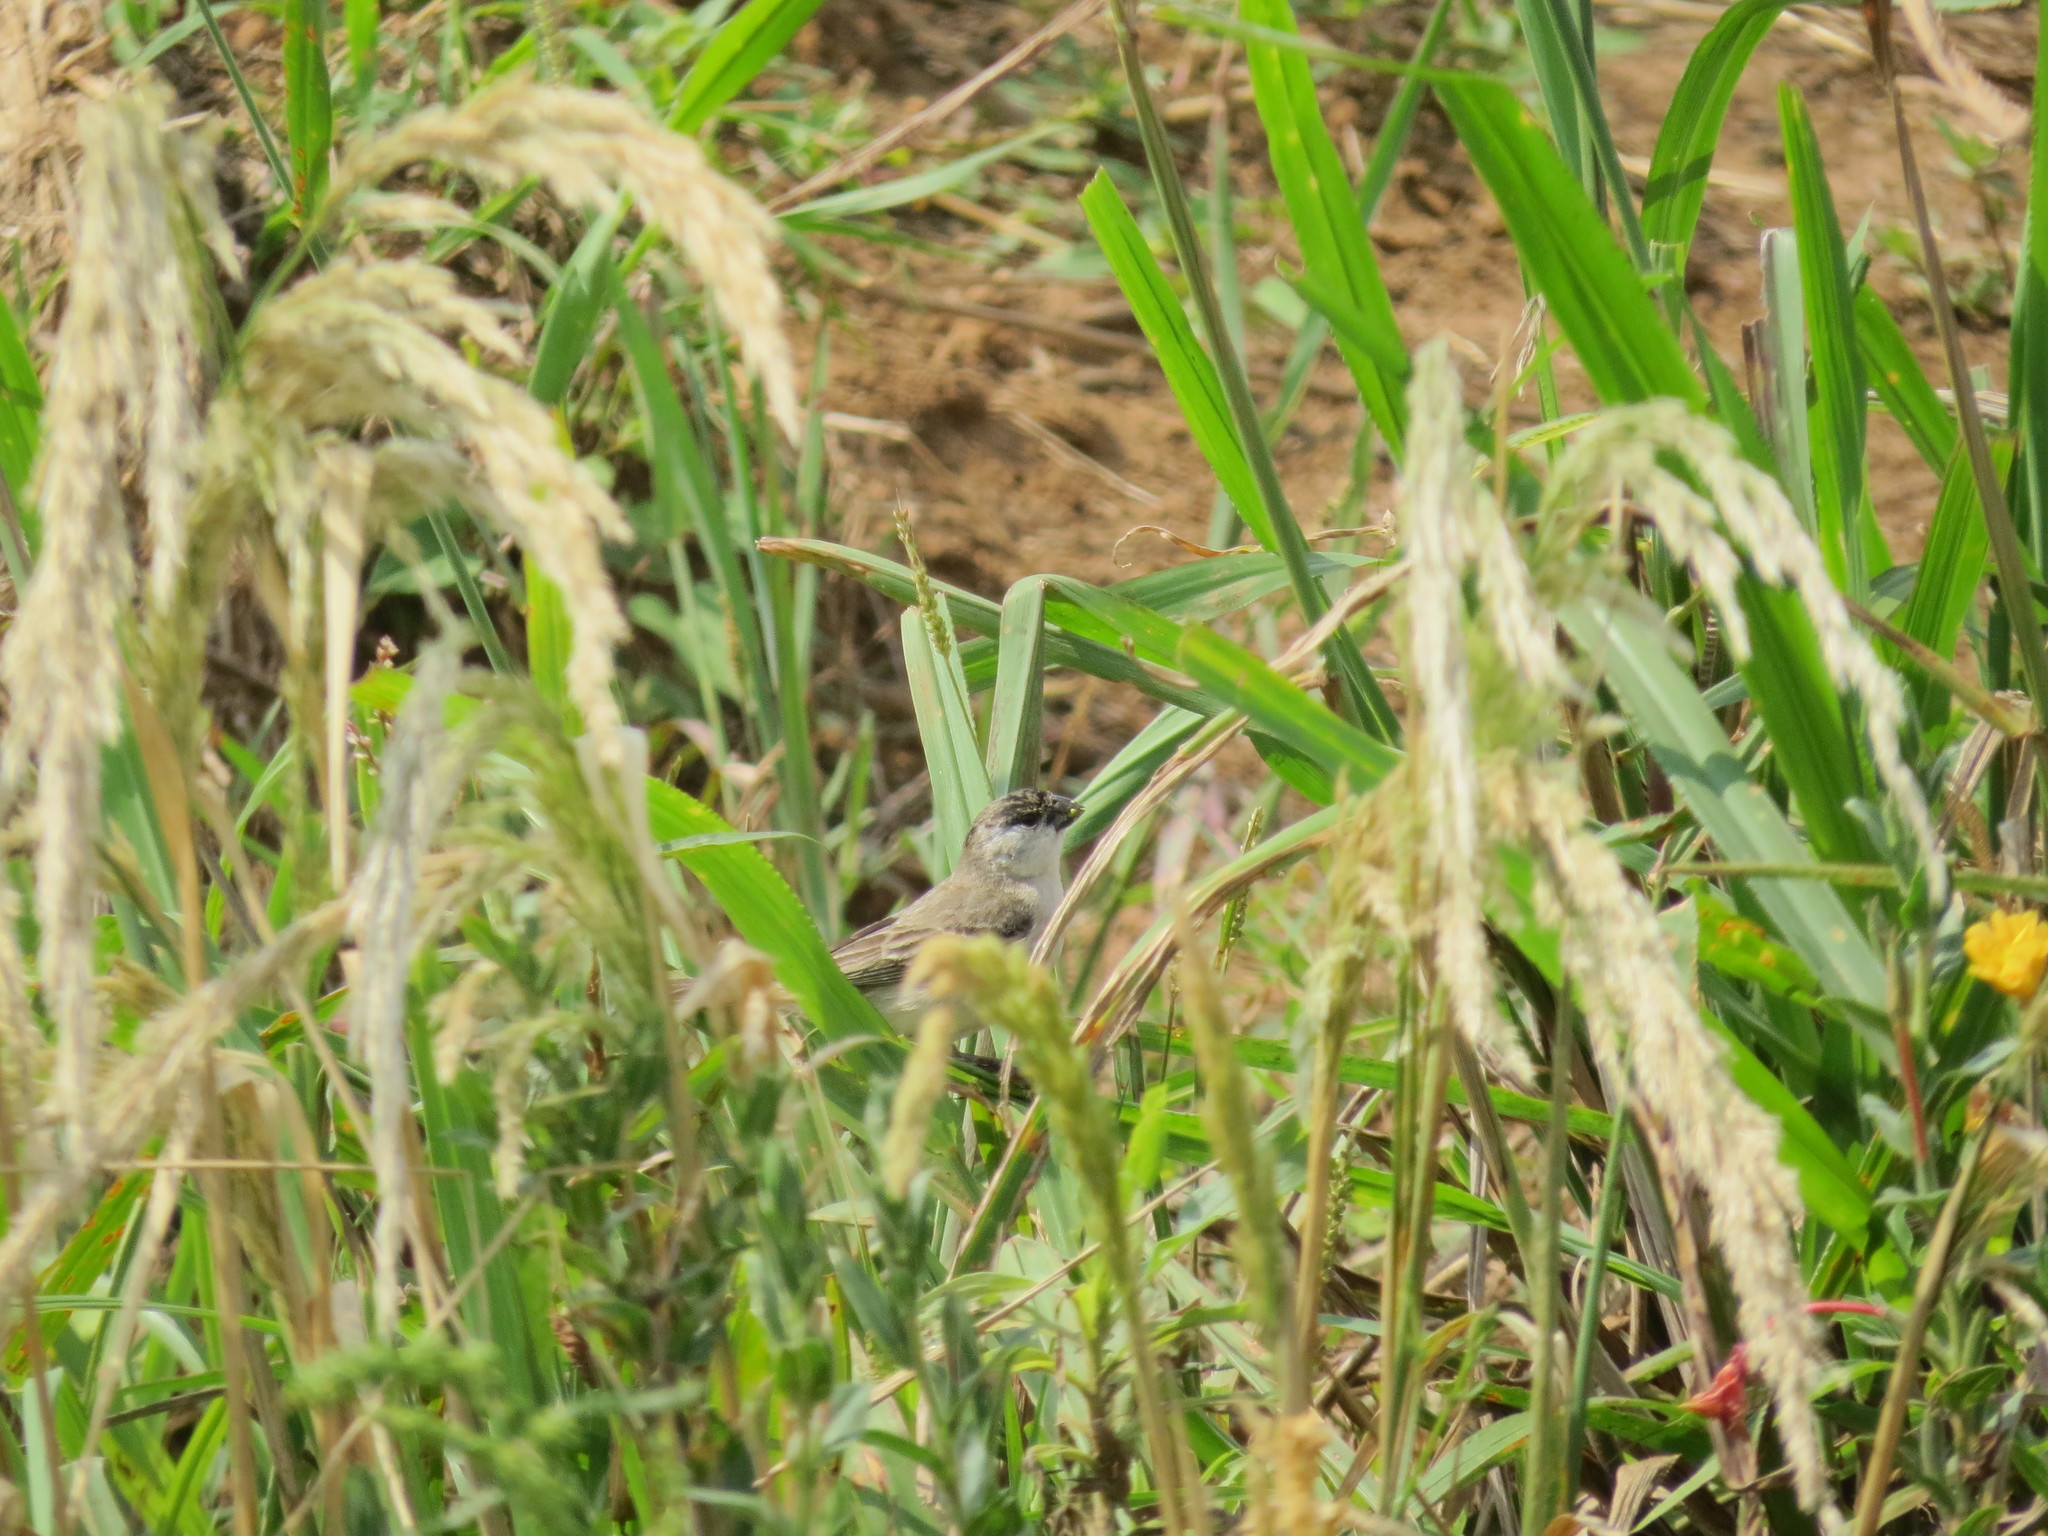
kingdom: Animalia
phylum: Chordata
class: Aves
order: Passeriformes
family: Thraupidae
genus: Sporophila
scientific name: Sporophila pileata
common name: Pearly-bellied seedeater
